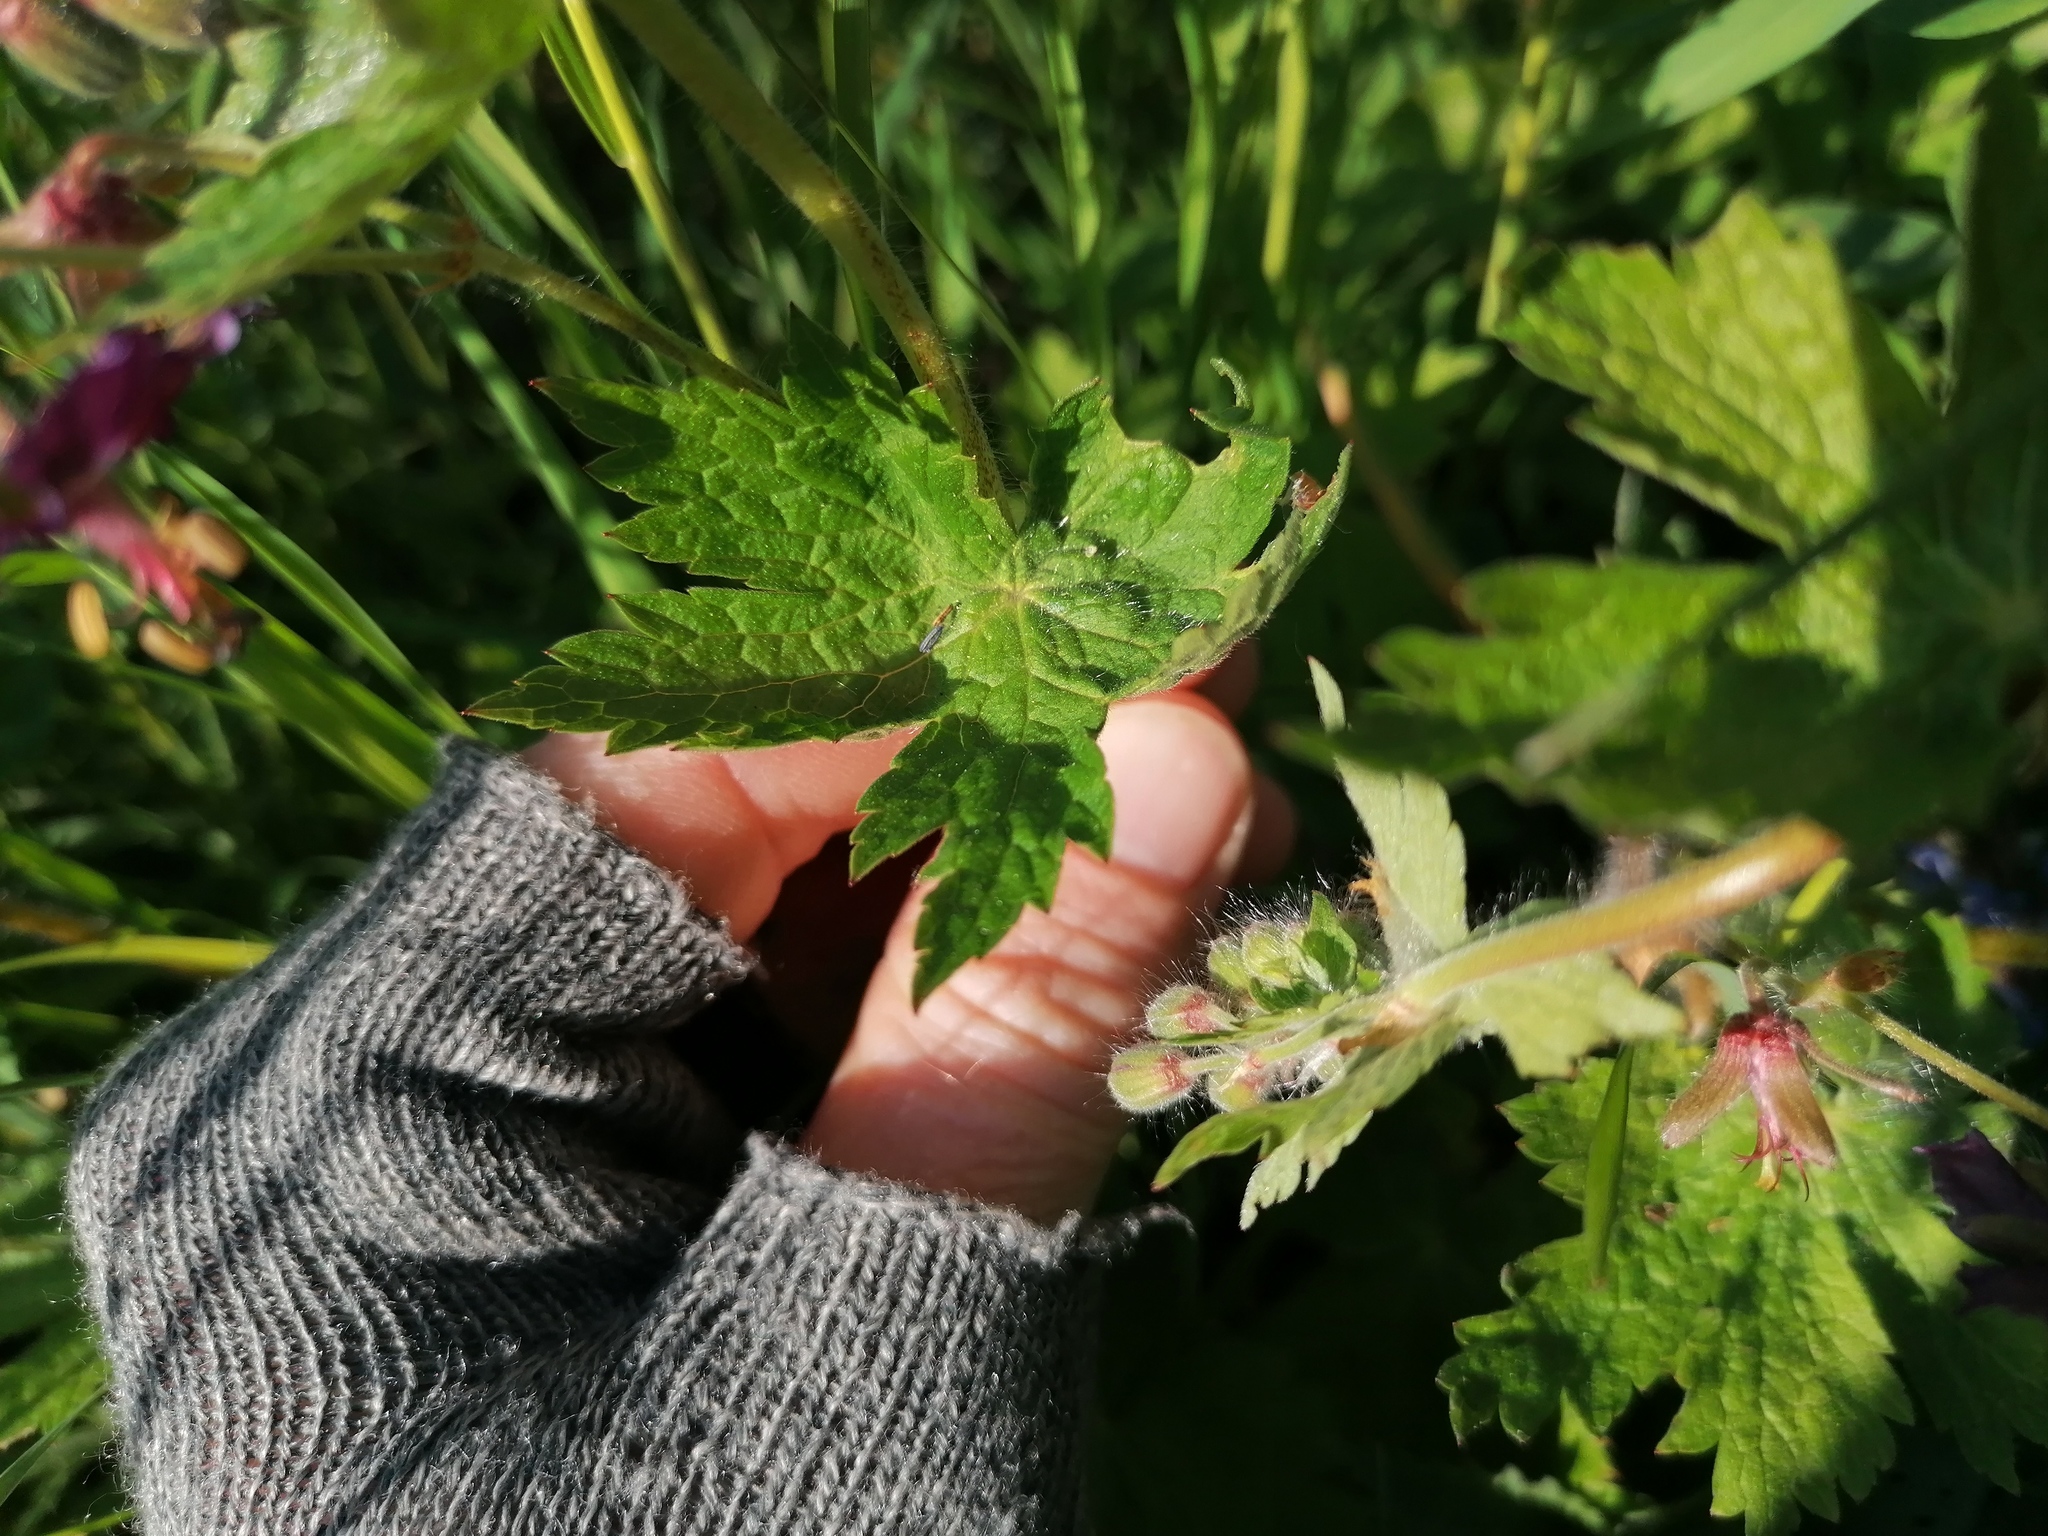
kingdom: Plantae
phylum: Tracheophyta
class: Magnoliopsida
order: Geraniales
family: Geraniaceae
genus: Geranium
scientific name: Geranium phaeum
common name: Dusky crane's-bill
